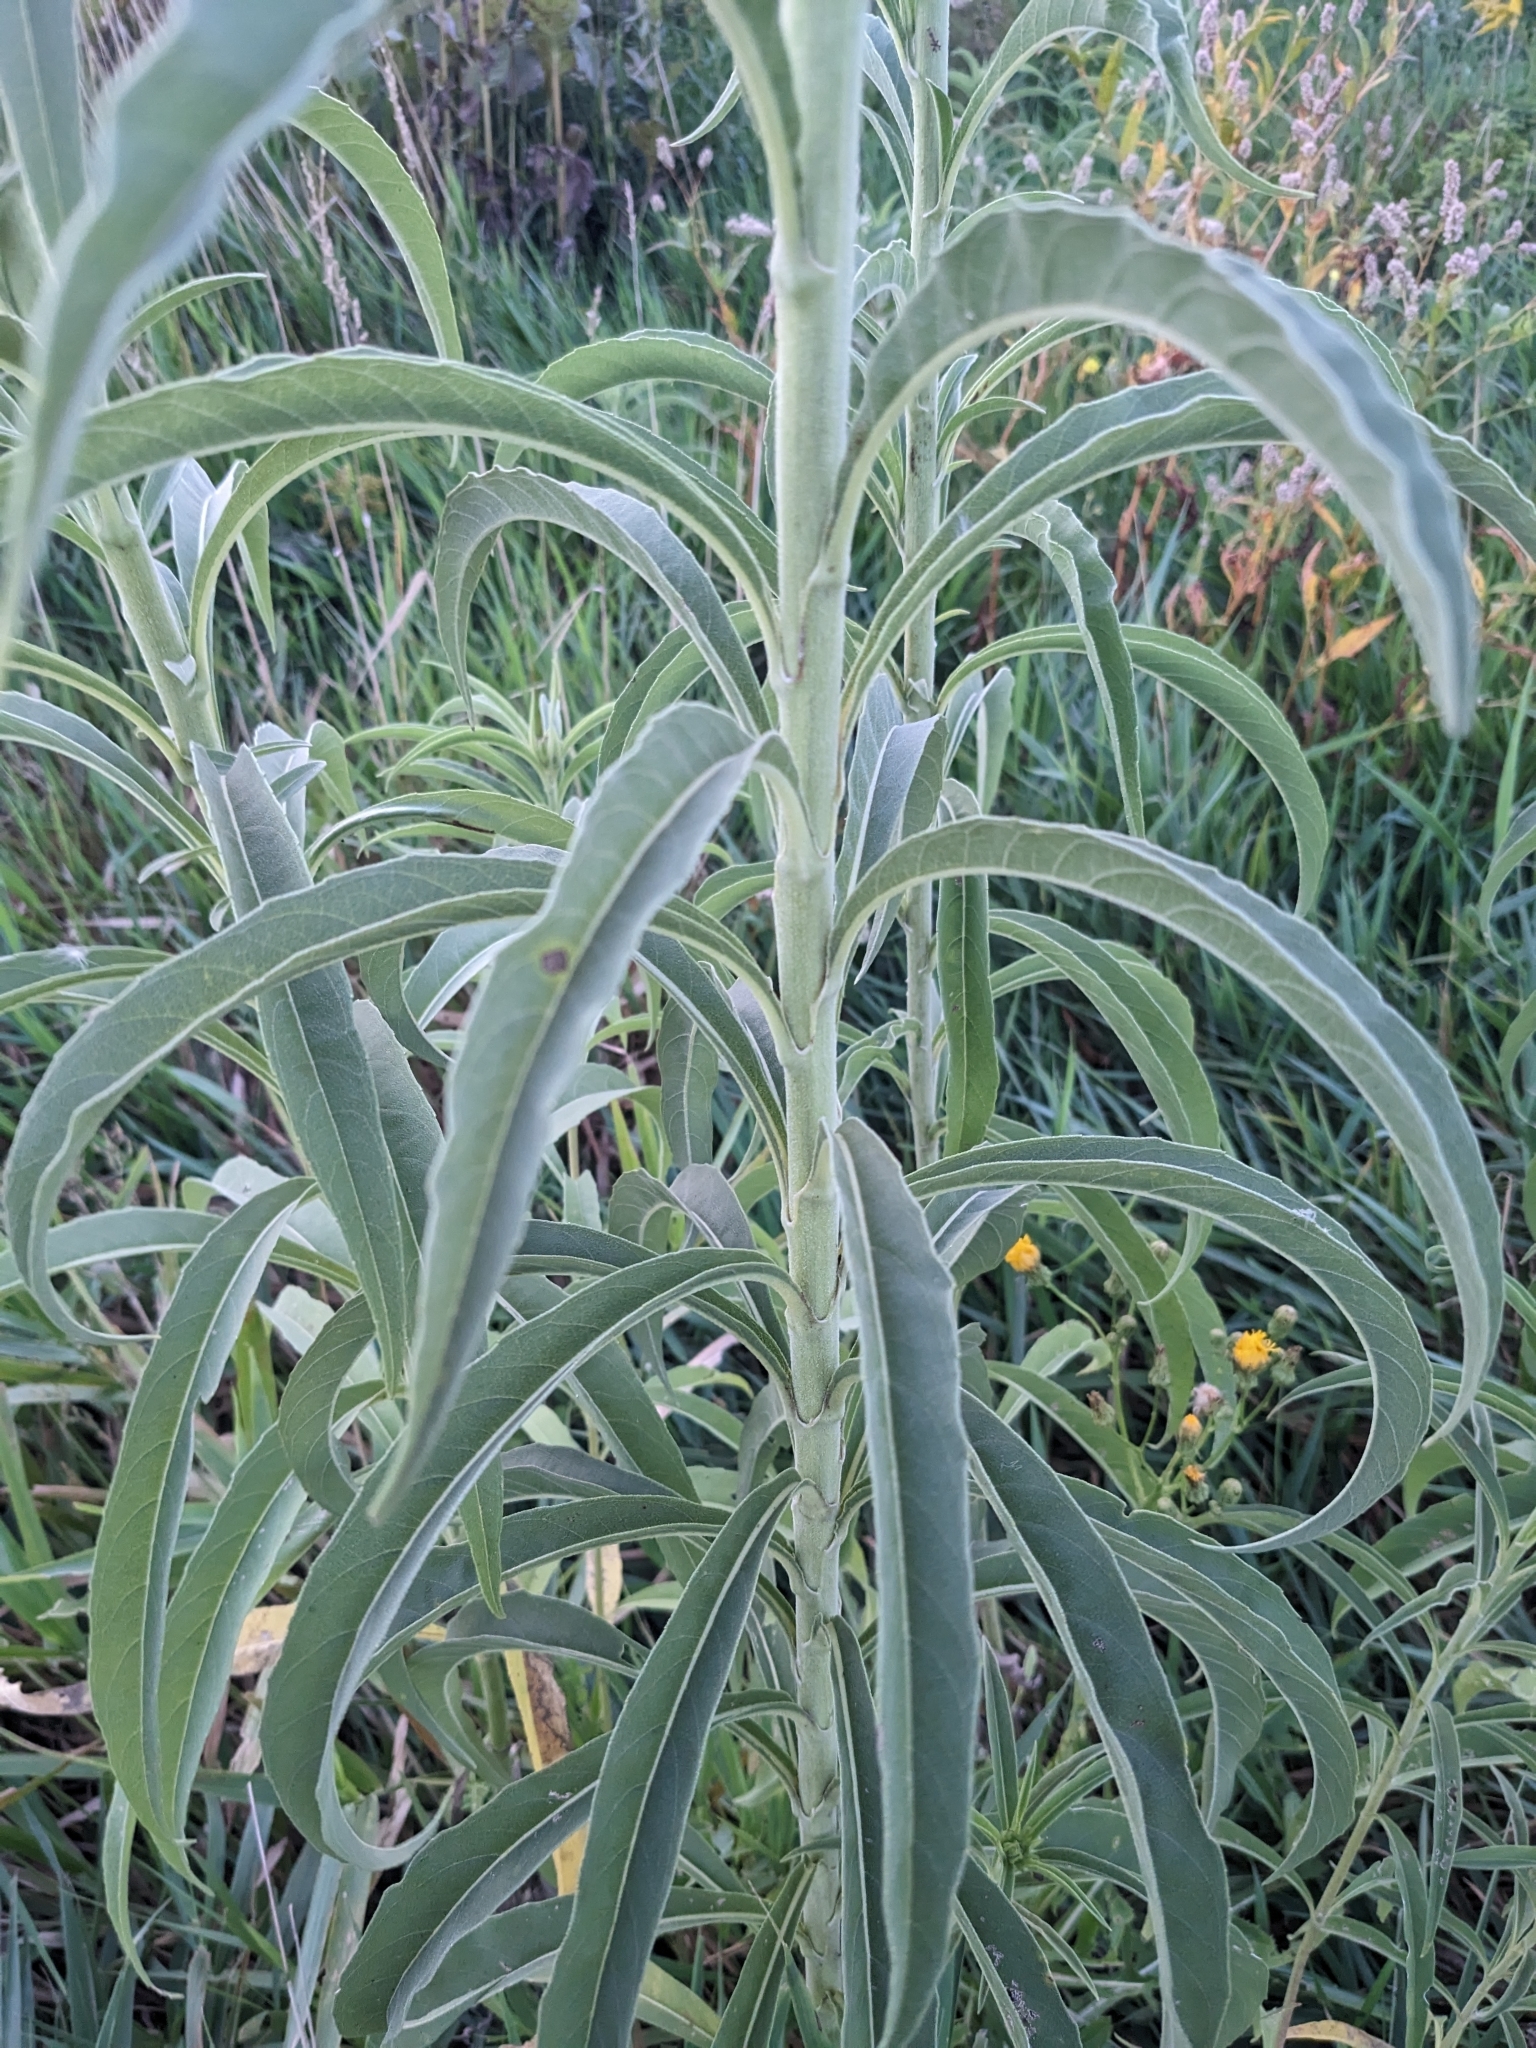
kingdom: Plantae
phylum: Tracheophyta
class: Magnoliopsida
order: Asterales
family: Asteraceae
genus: Helianthus
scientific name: Helianthus maximiliani
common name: Maximilian's sunflower
